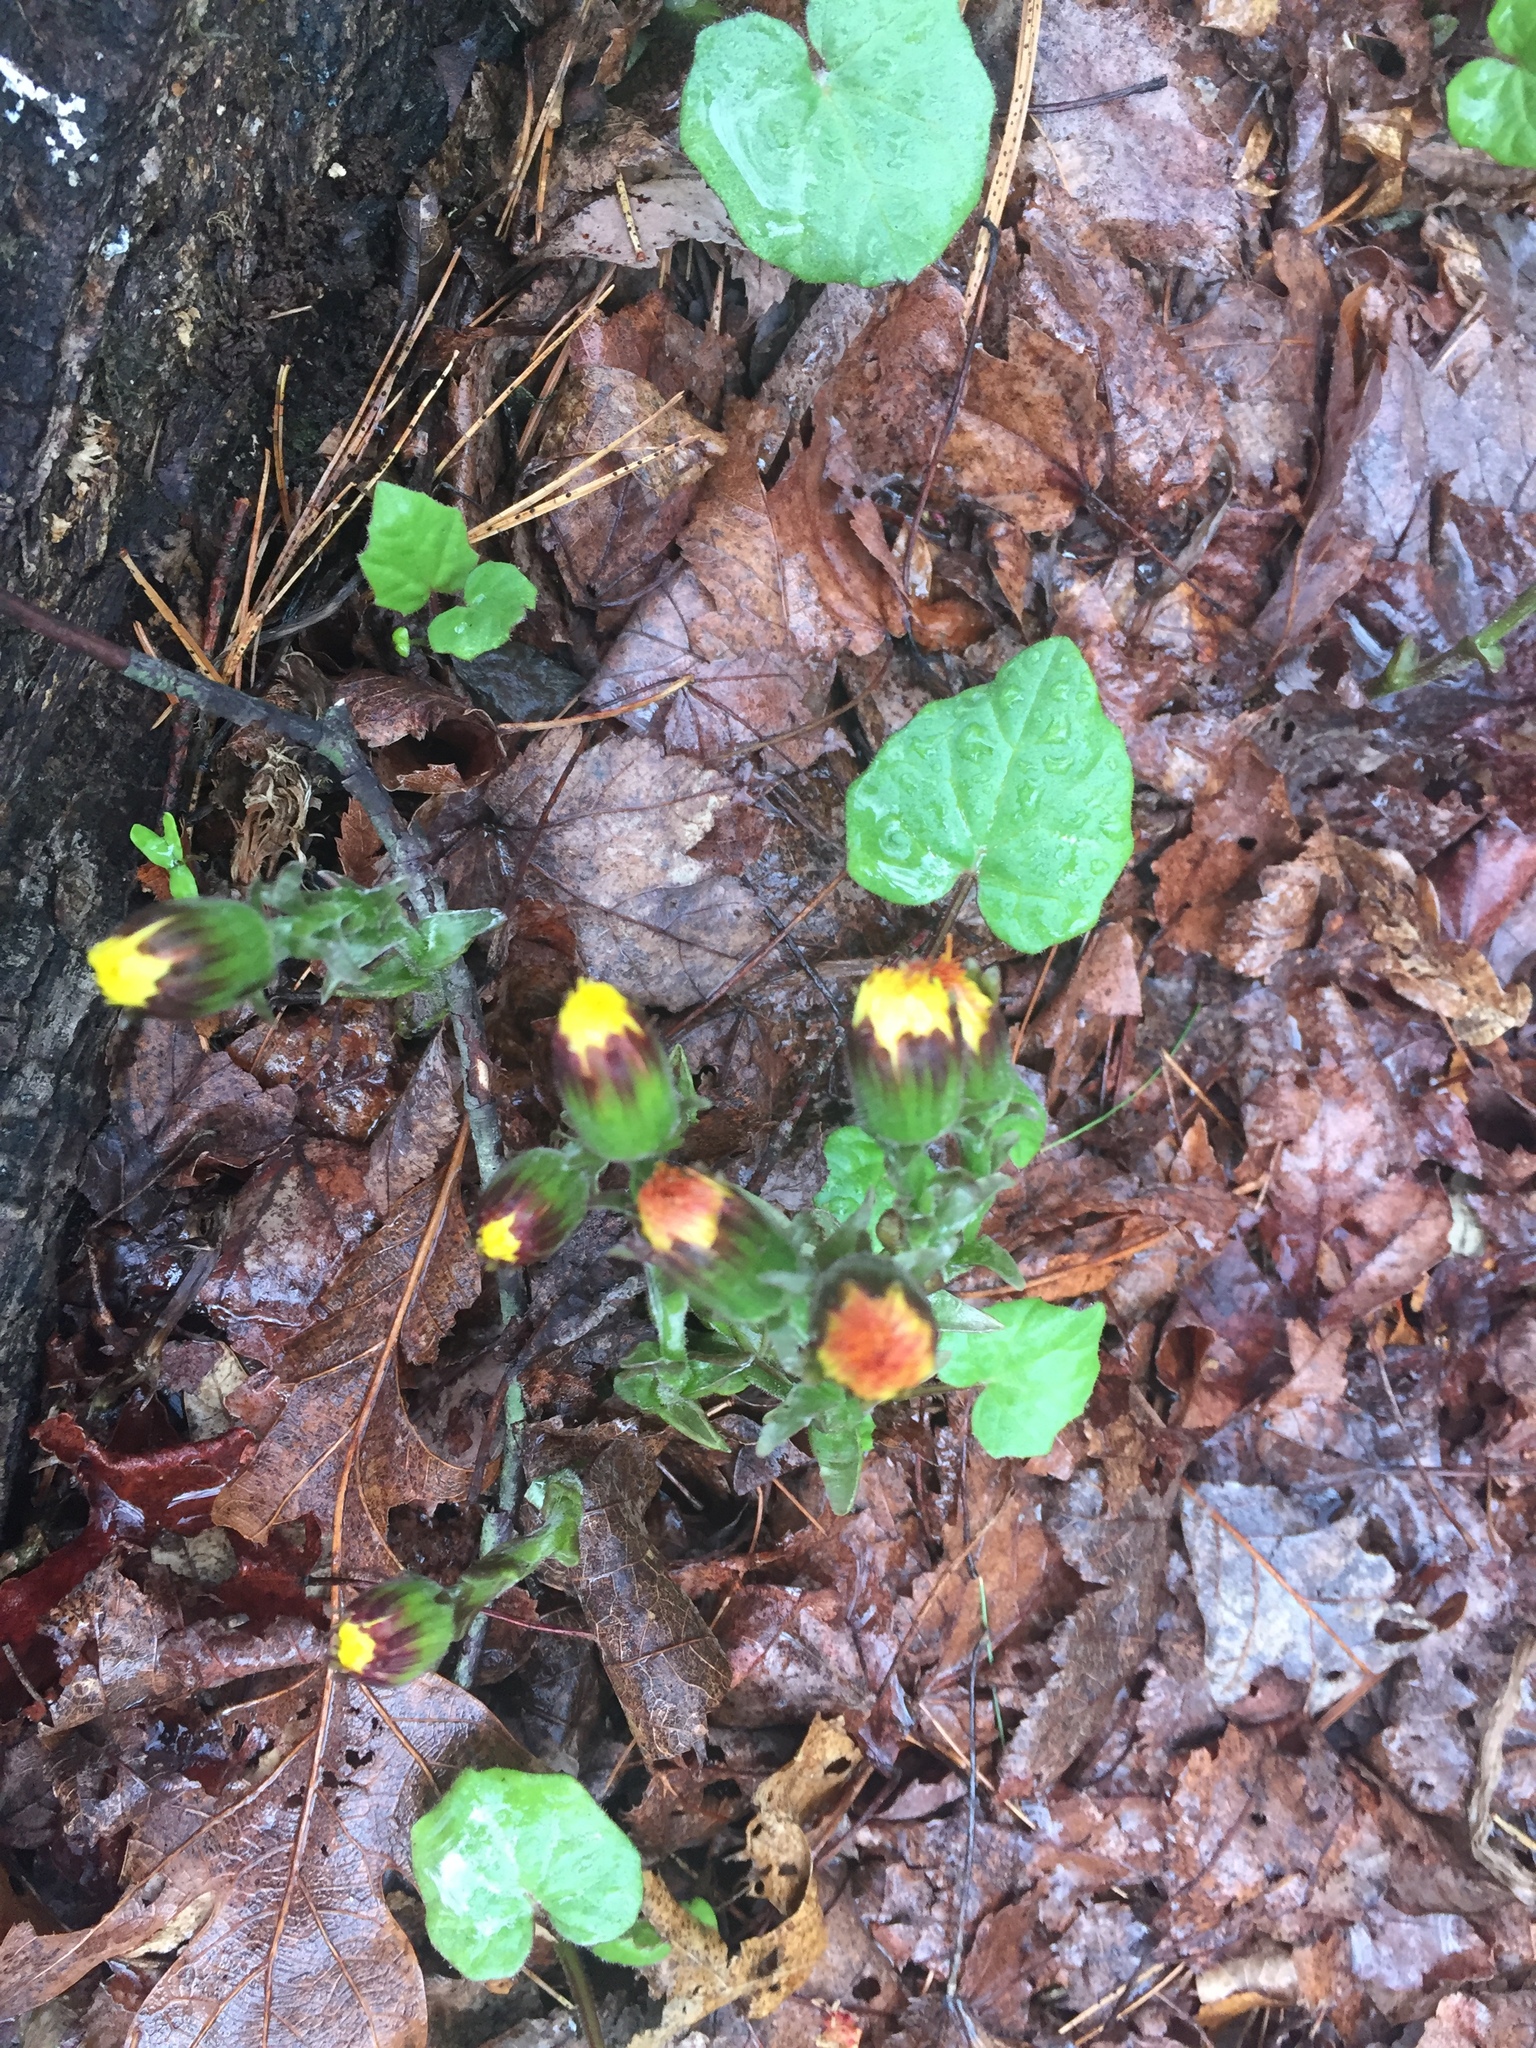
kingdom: Plantae
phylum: Tracheophyta
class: Magnoliopsida
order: Asterales
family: Asteraceae
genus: Tussilago
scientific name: Tussilago farfara
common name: Coltsfoot
